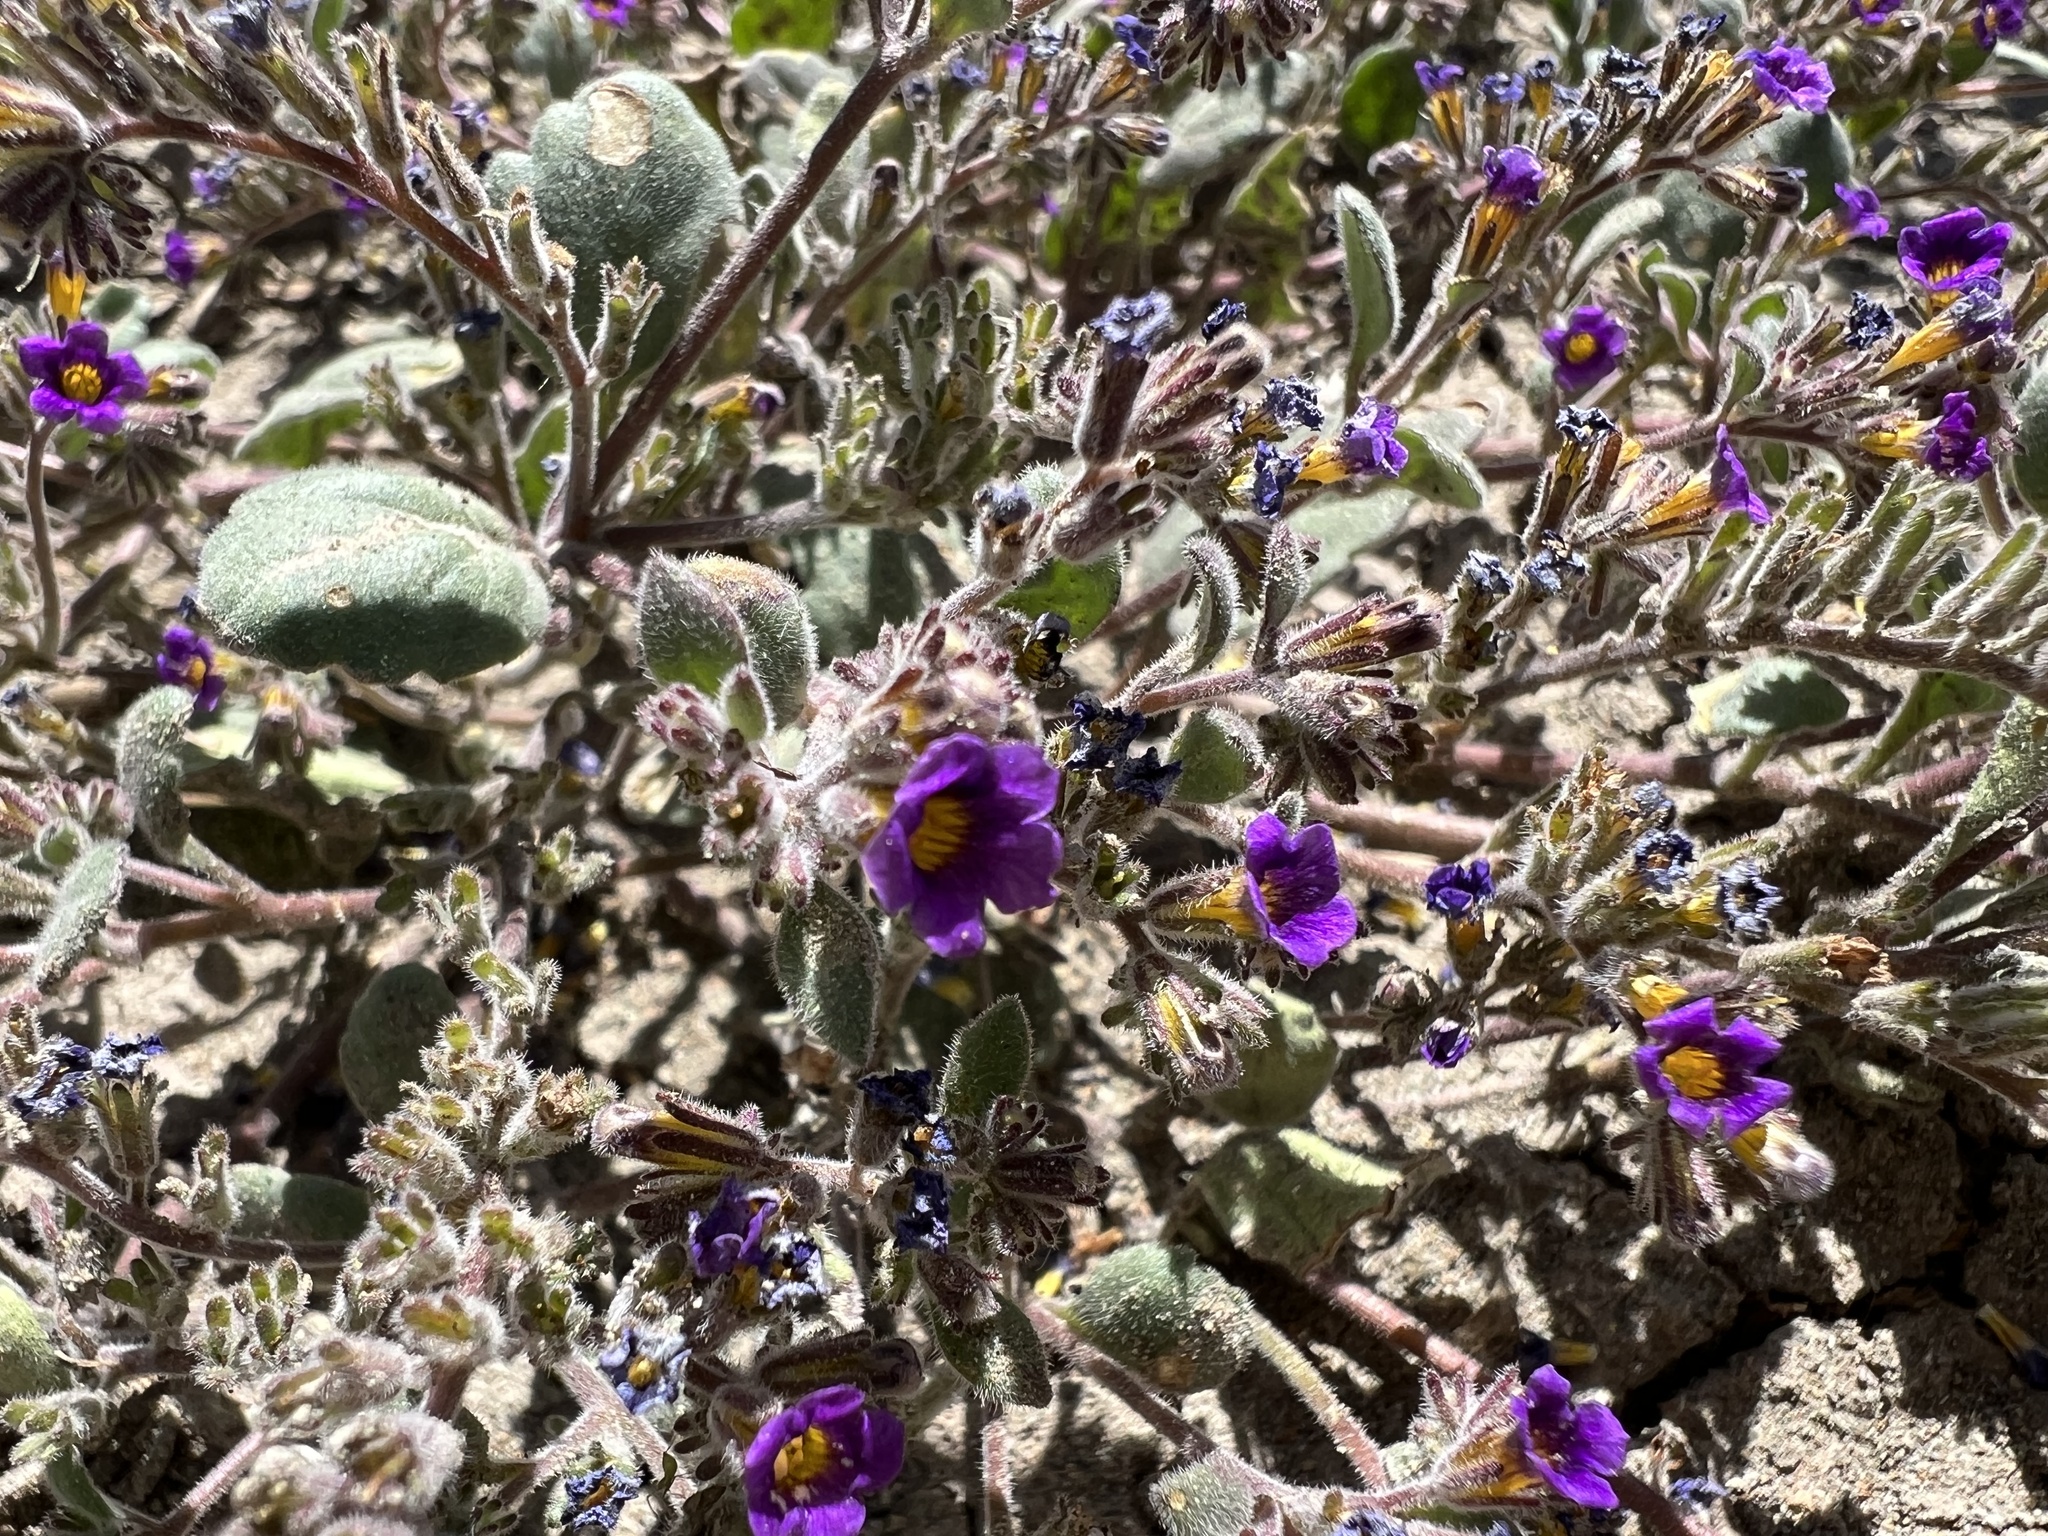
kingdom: Plantae
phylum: Tracheophyta
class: Magnoliopsida
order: Boraginales
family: Hydrophyllaceae
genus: Phacelia
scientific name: Phacelia gymnoclada
